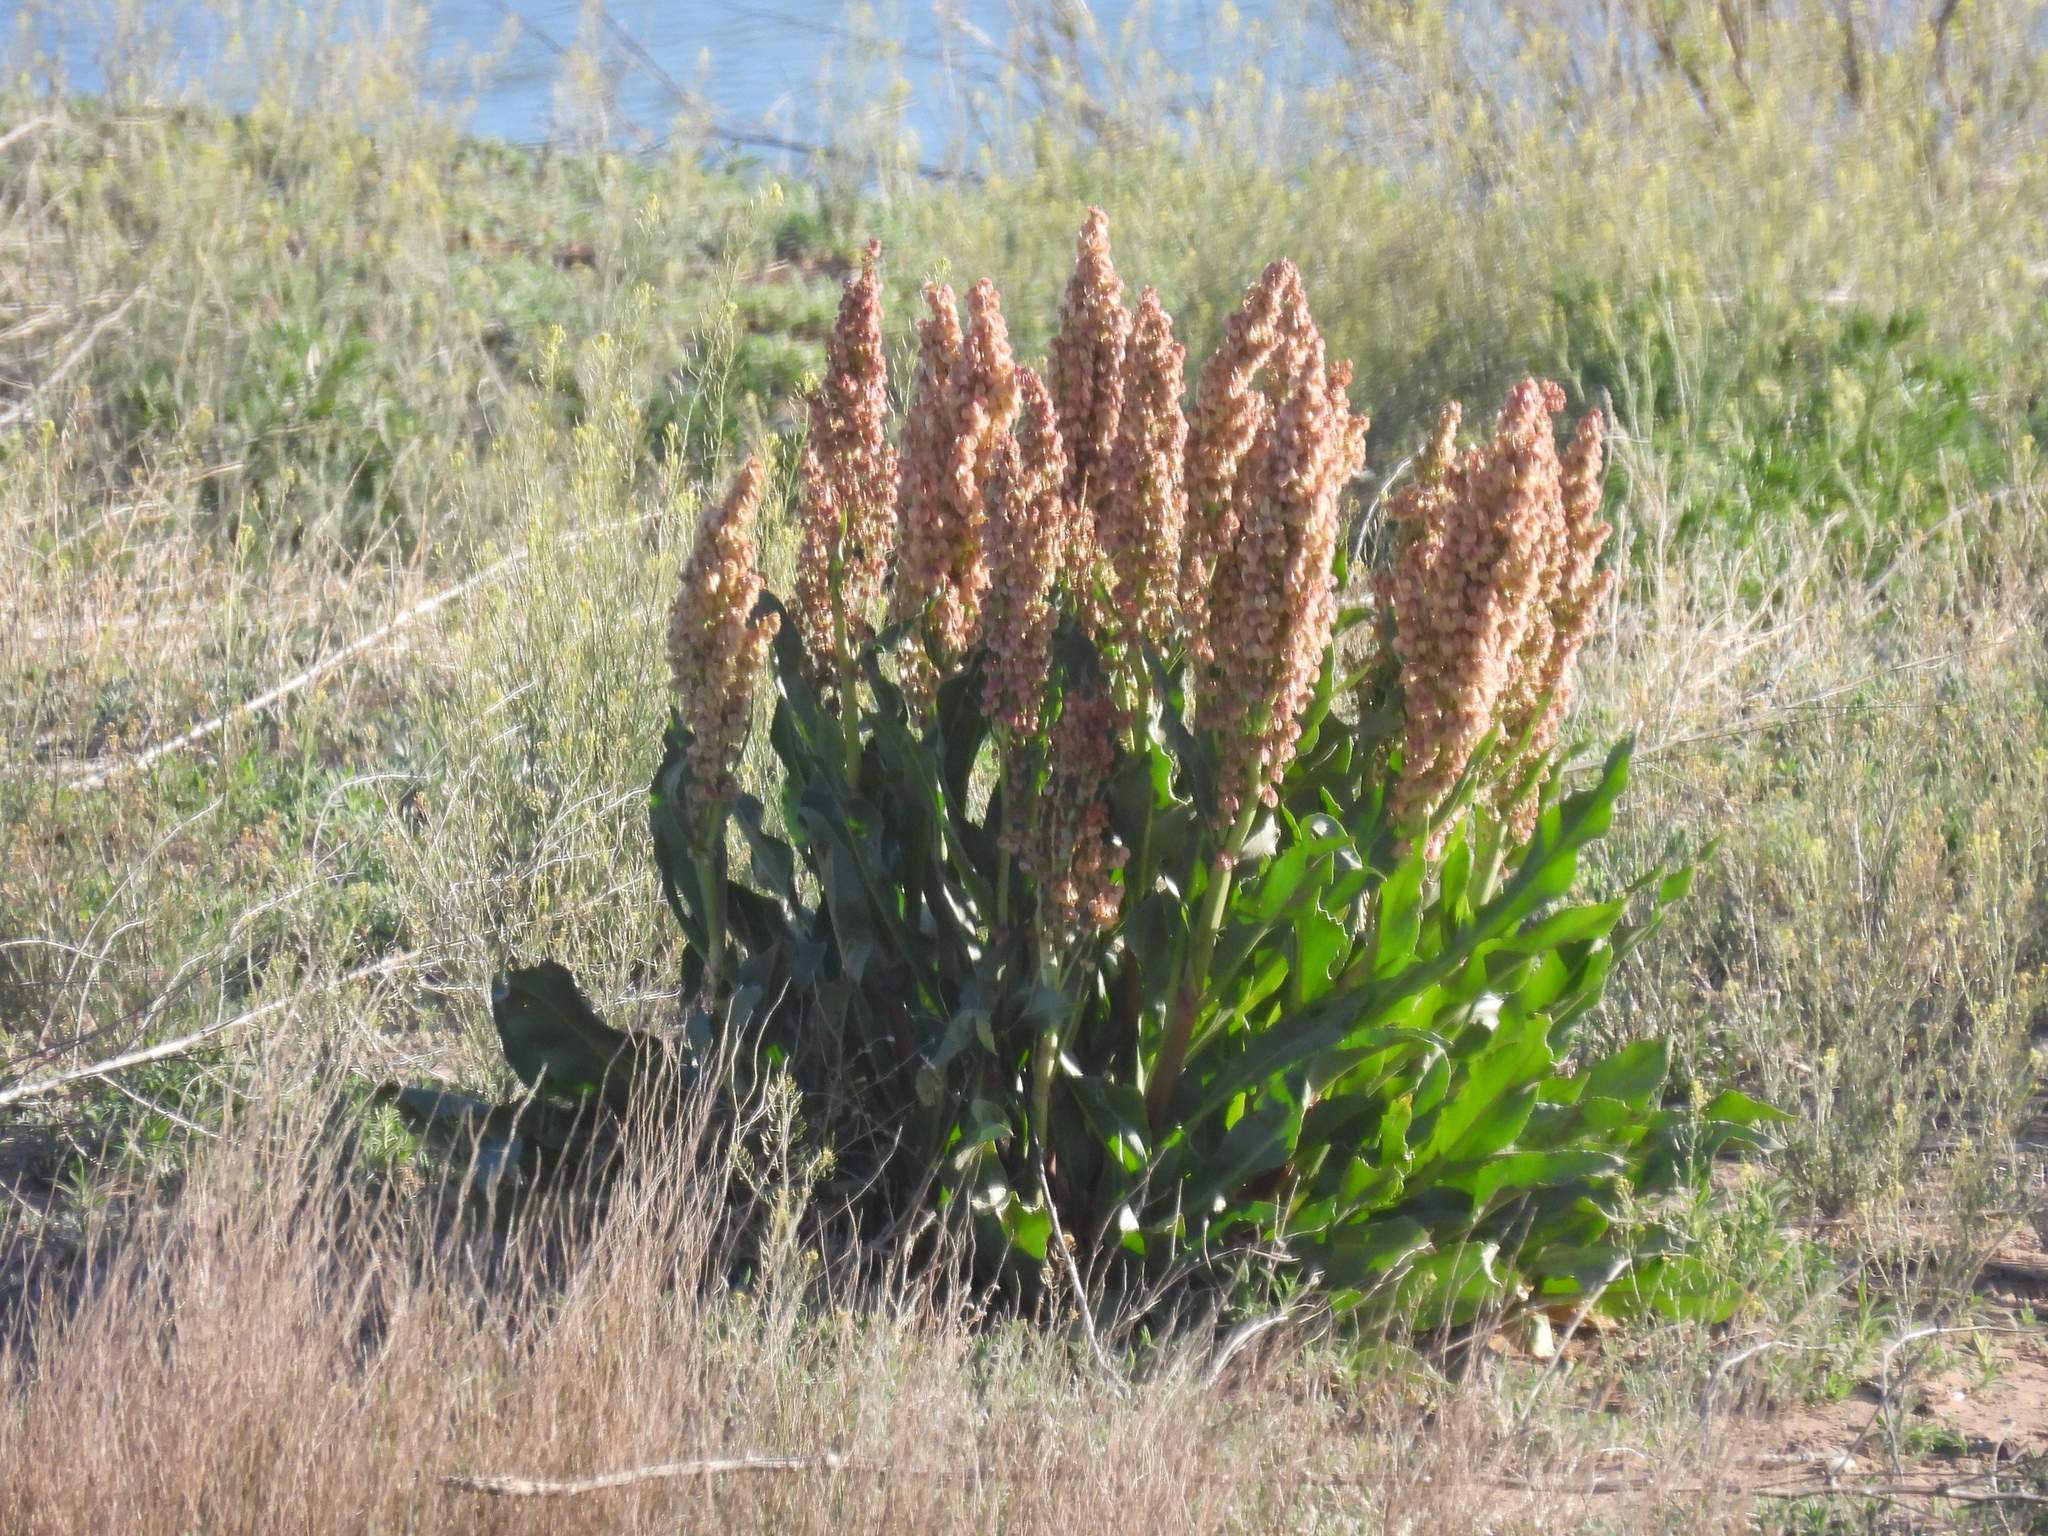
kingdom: Plantae
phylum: Tracheophyta
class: Magnoliopsida
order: Caryophyllales
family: Polygonaceae
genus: Rumex
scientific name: Rumex hymenosepalus
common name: Ganagra
